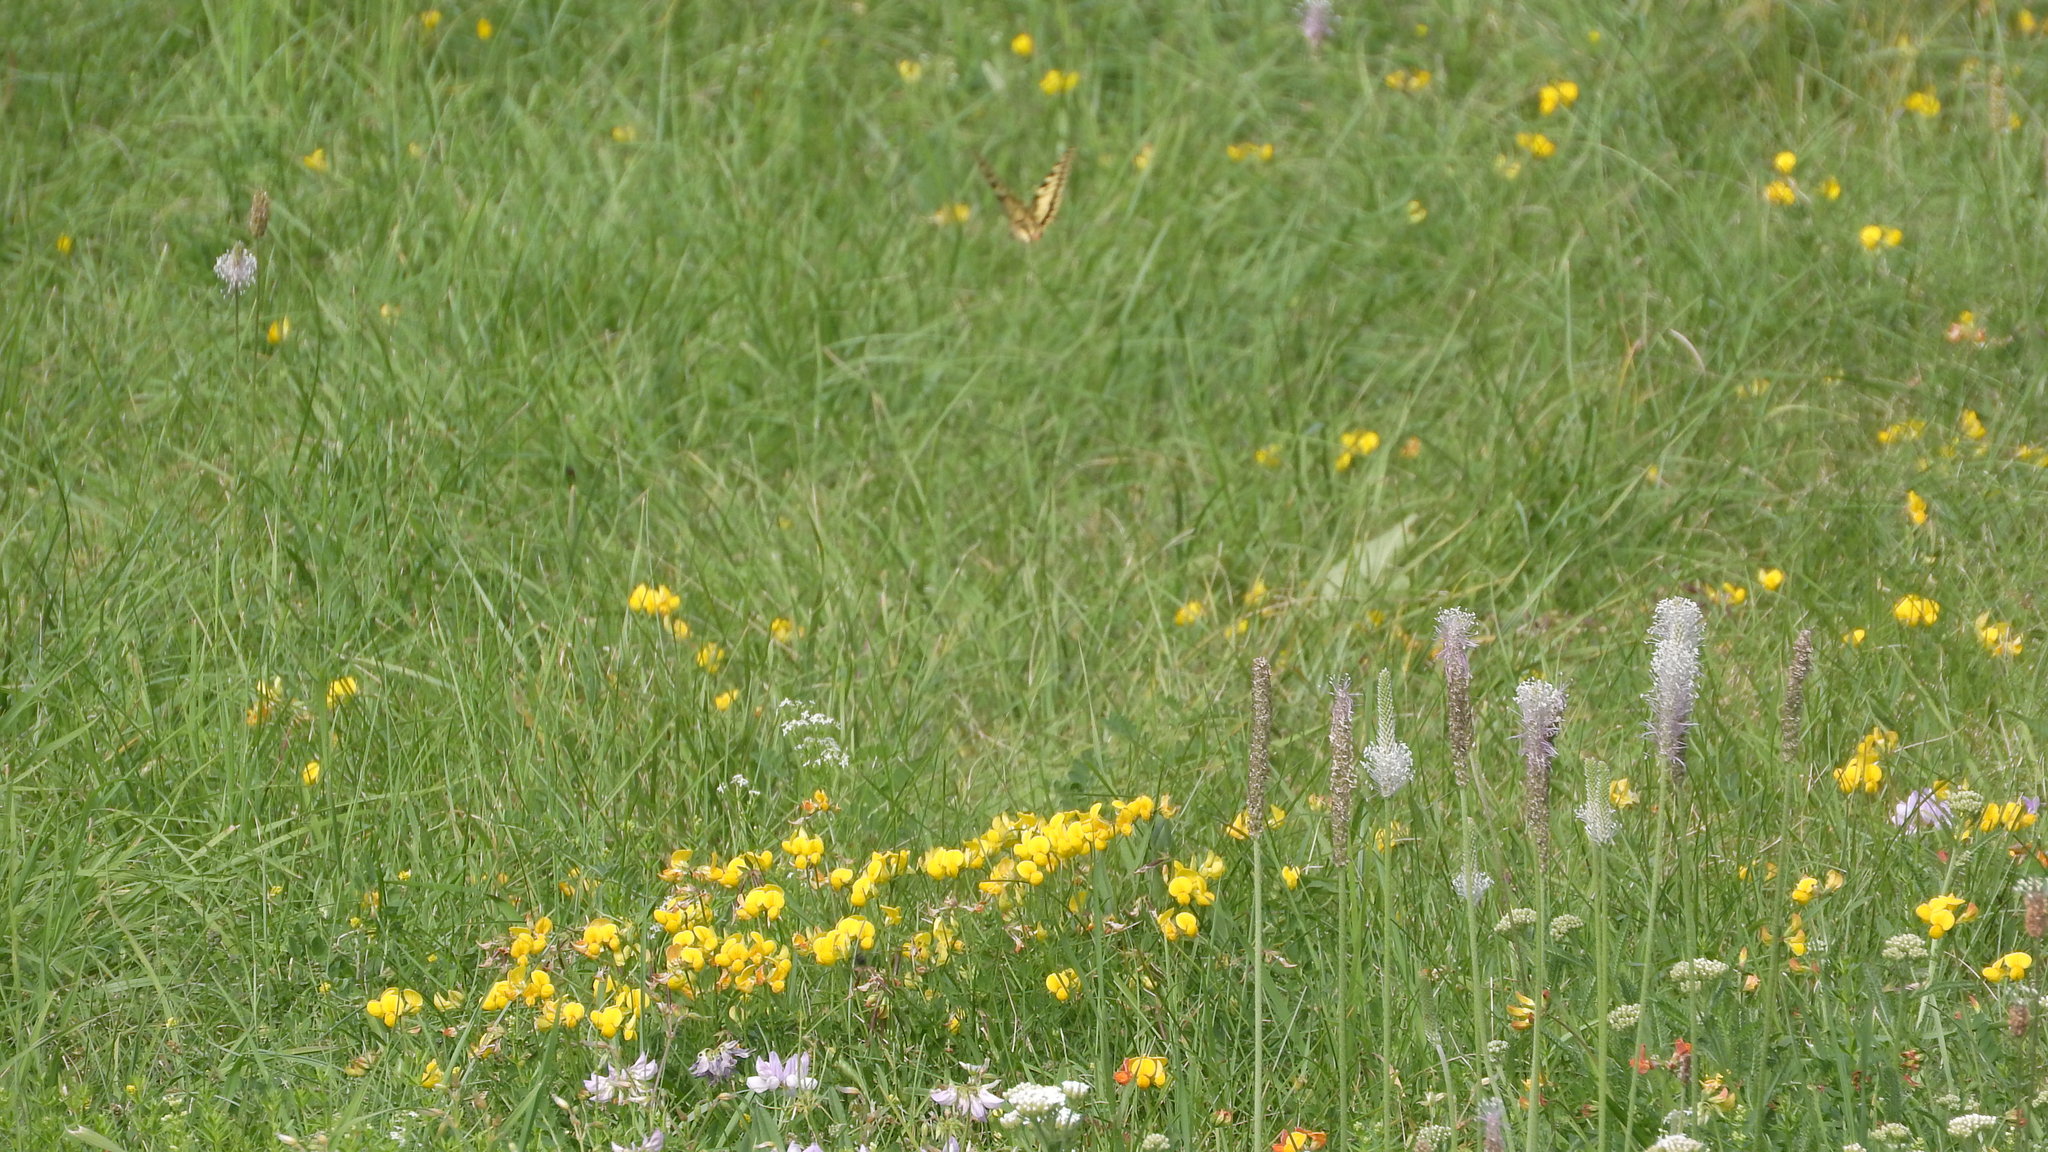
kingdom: Animalia
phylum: Arthropoda
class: Insecta
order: Lepidoptera
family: Papilionidae
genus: Papilio
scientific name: Papilio machaon
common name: Swallowtail
